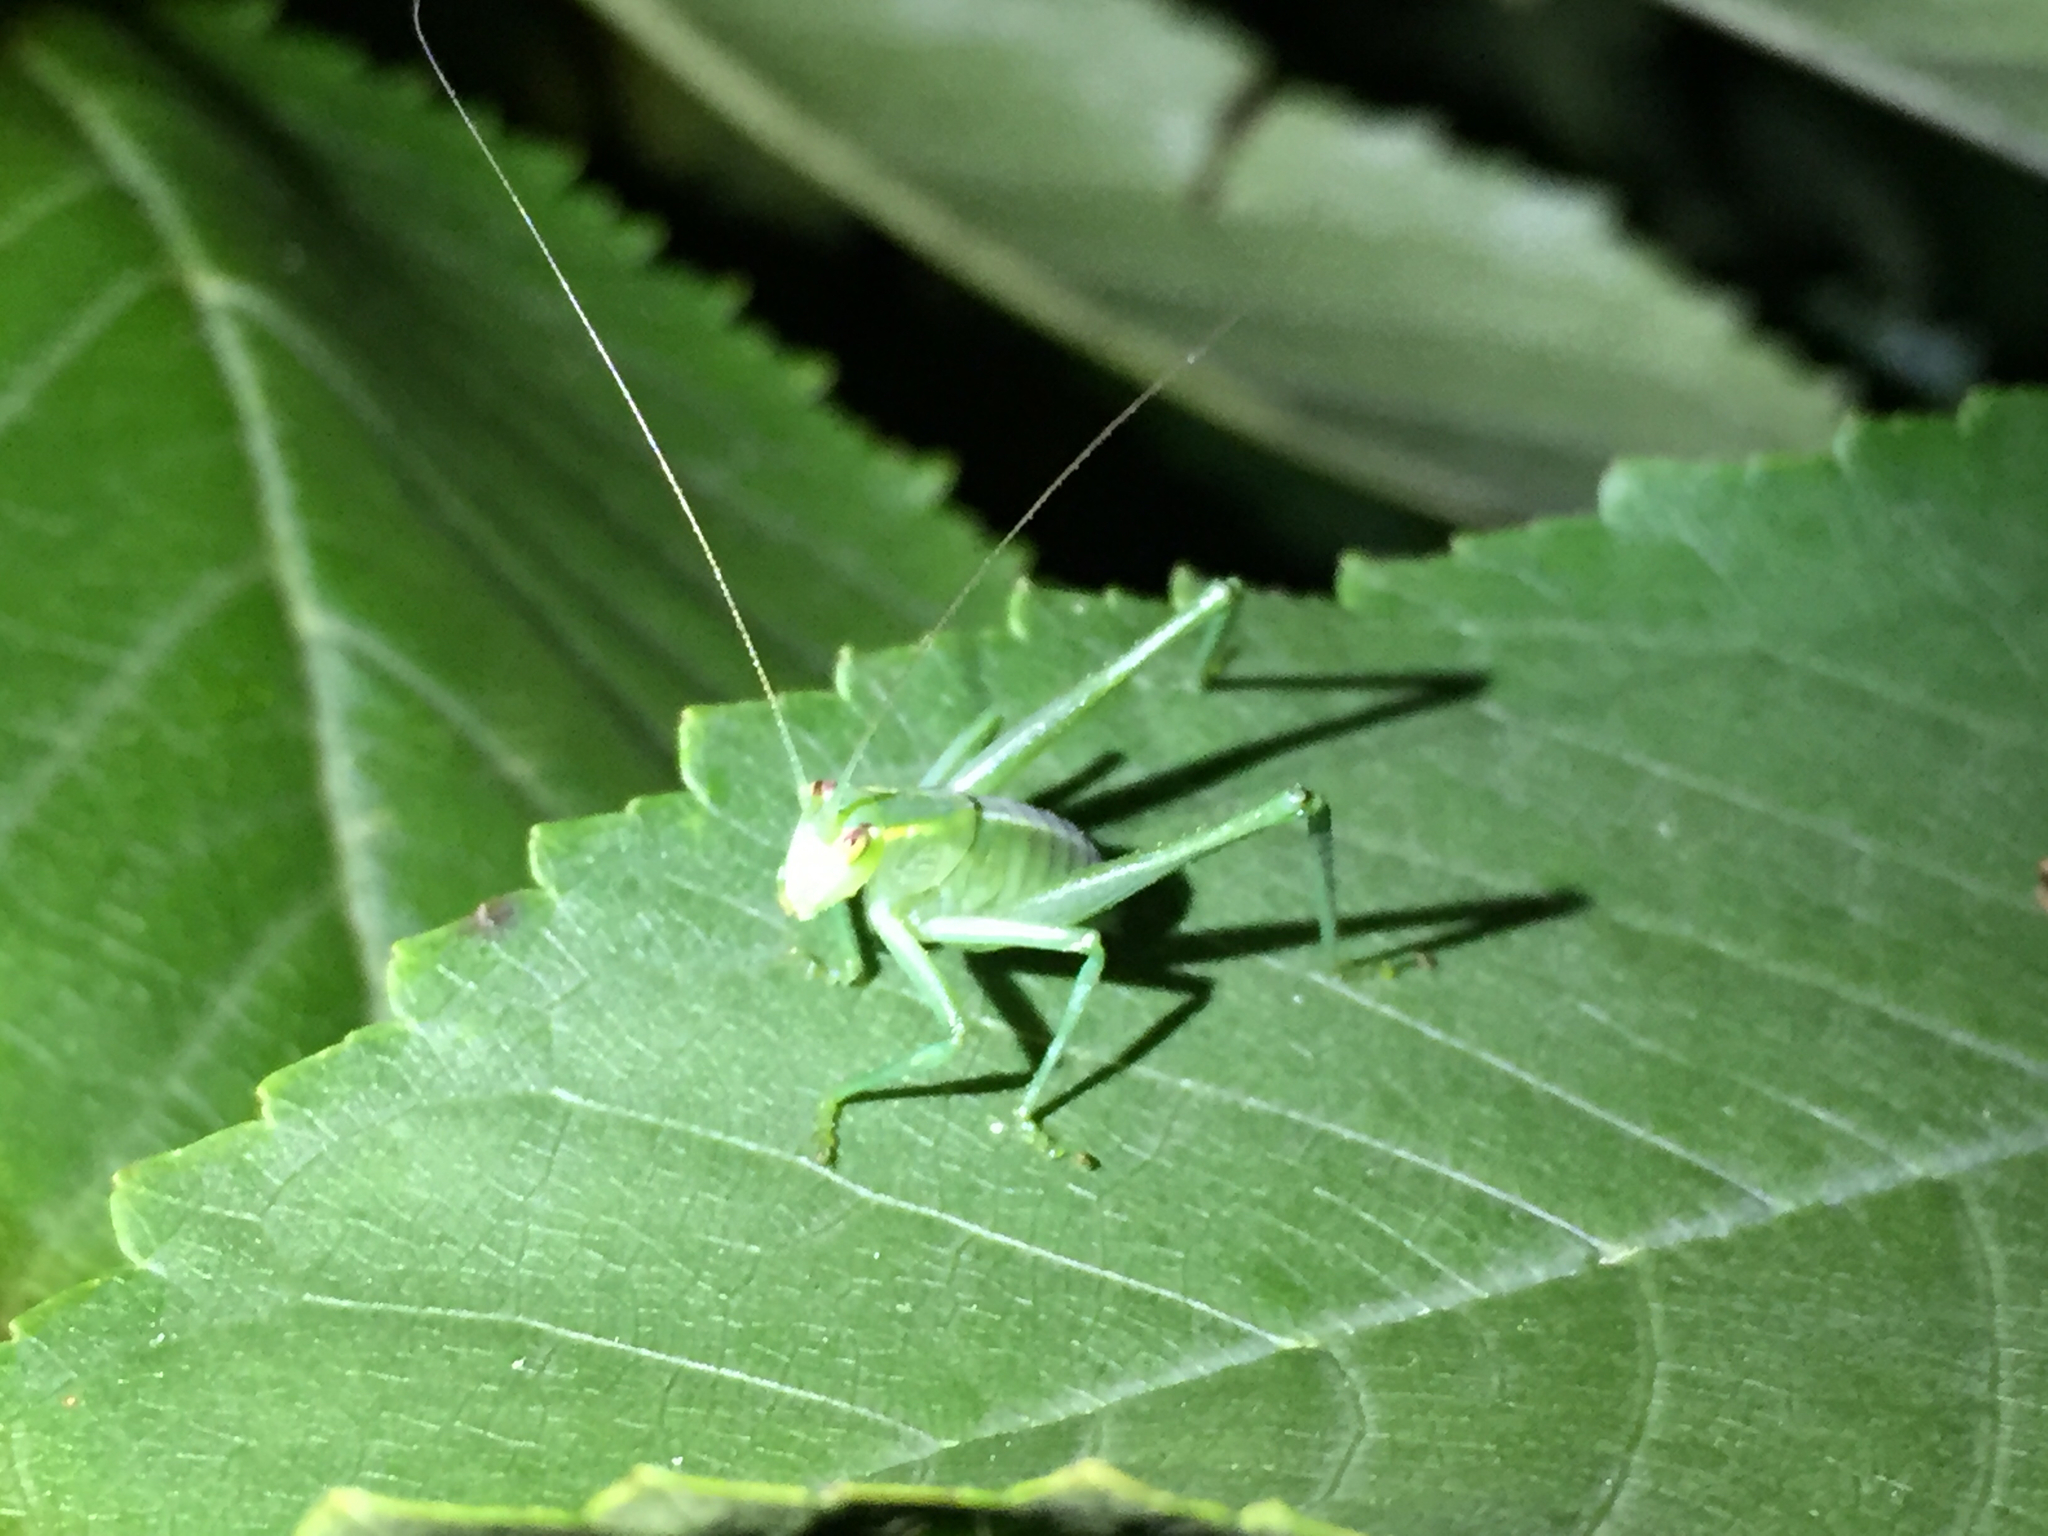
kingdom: Animalia
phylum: Arthropoda
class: Insecta
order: Orthoptera
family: Tettigoniidae
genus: Caedicia
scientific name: Caedicia simplex
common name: Common garden katydid
